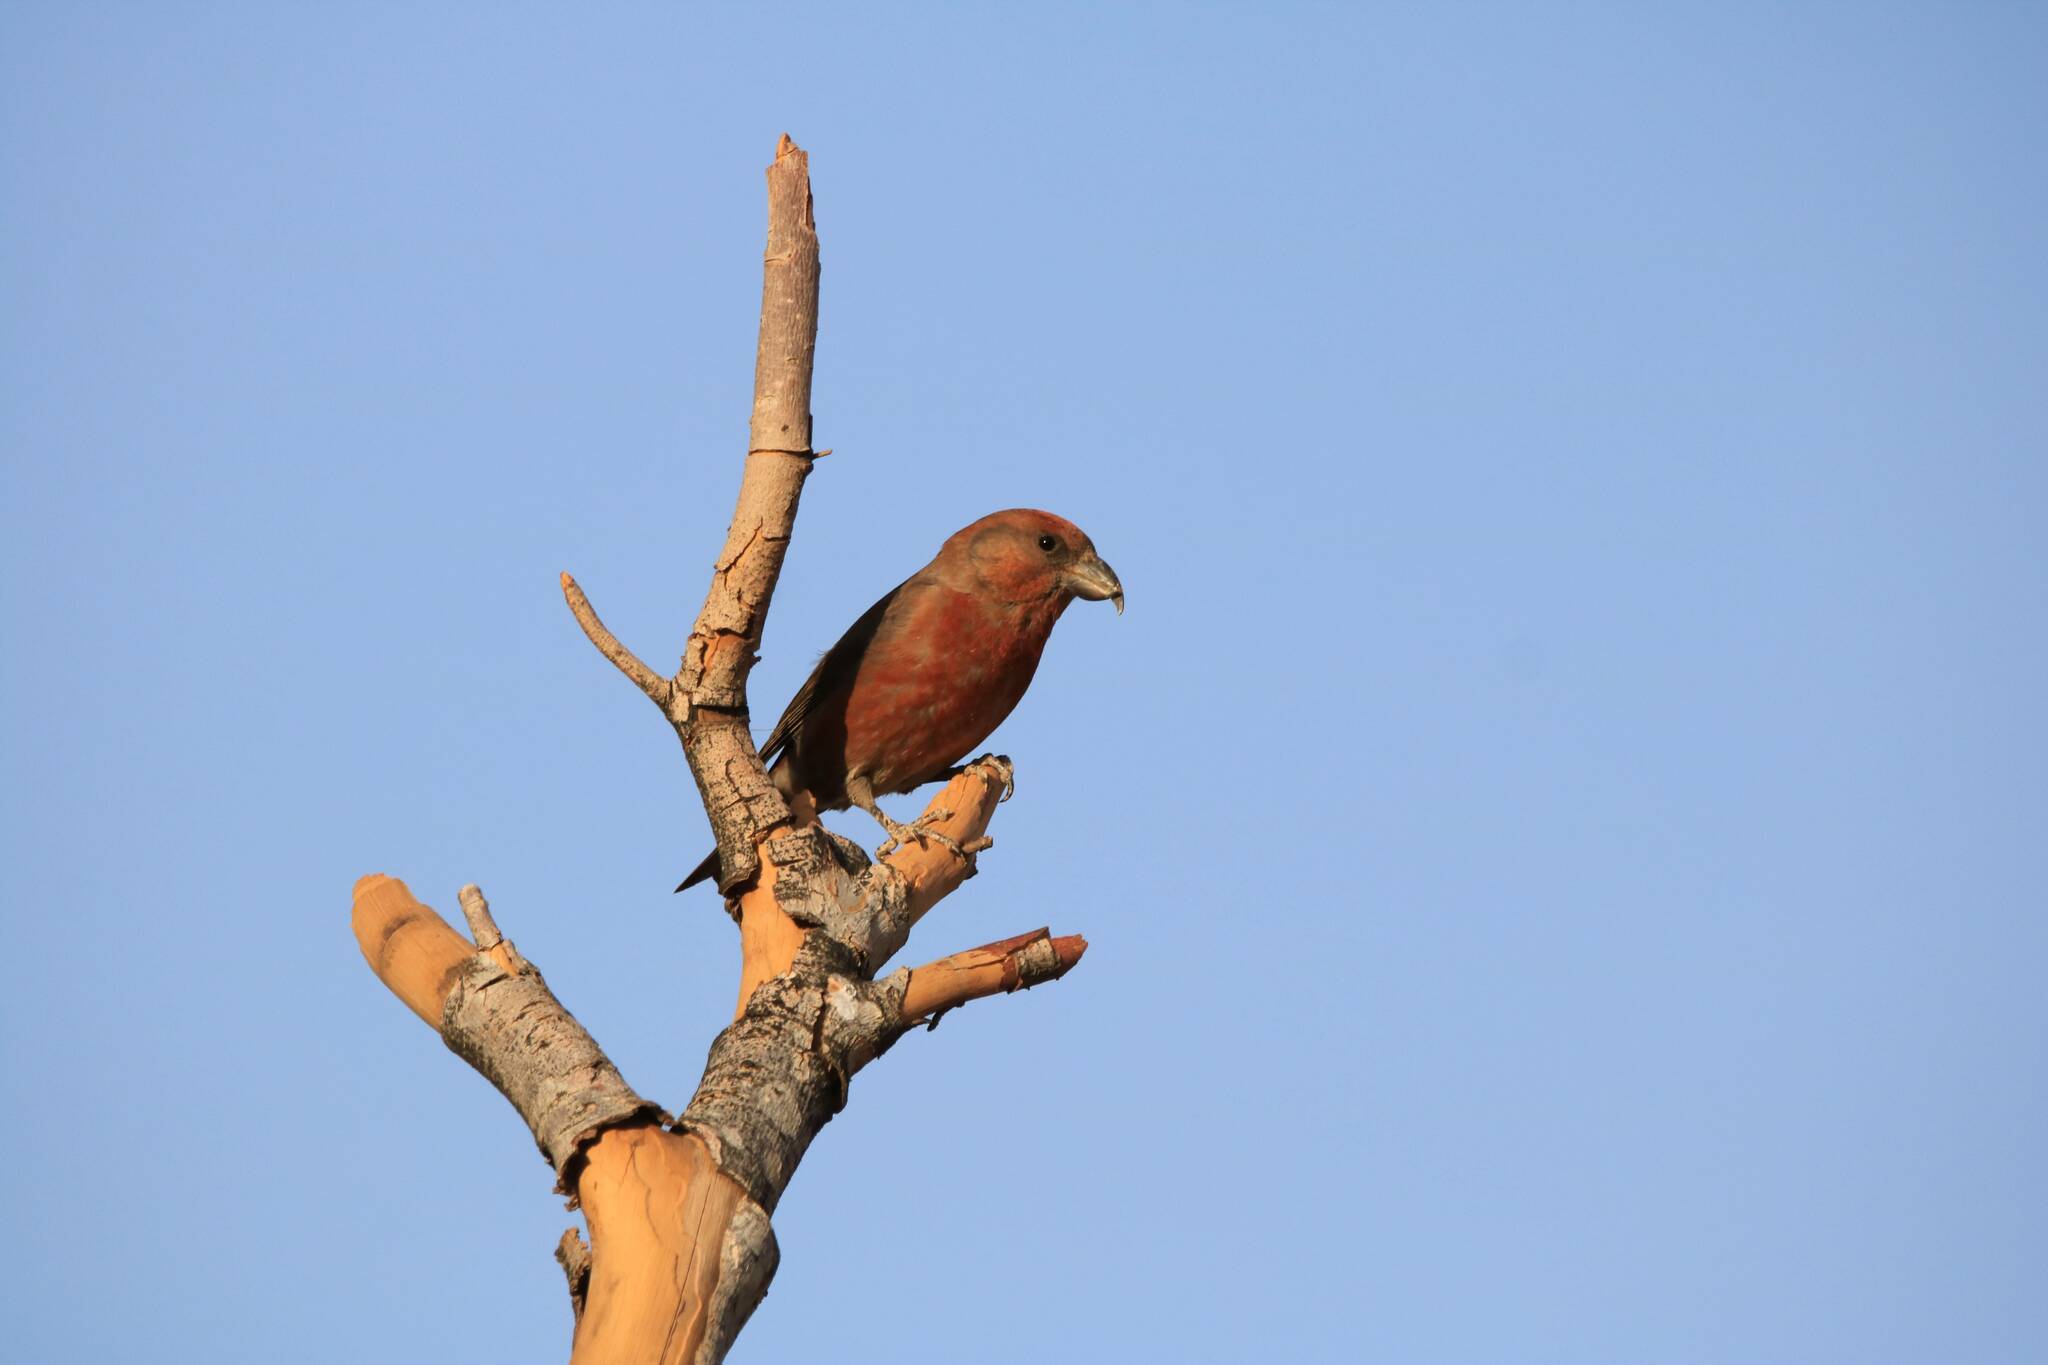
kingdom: Animalia
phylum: Chordata
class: Aves
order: Passeriformes
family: Fringillidae
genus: Loxia
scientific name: Loxia curvirostra
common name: Red crossbill
